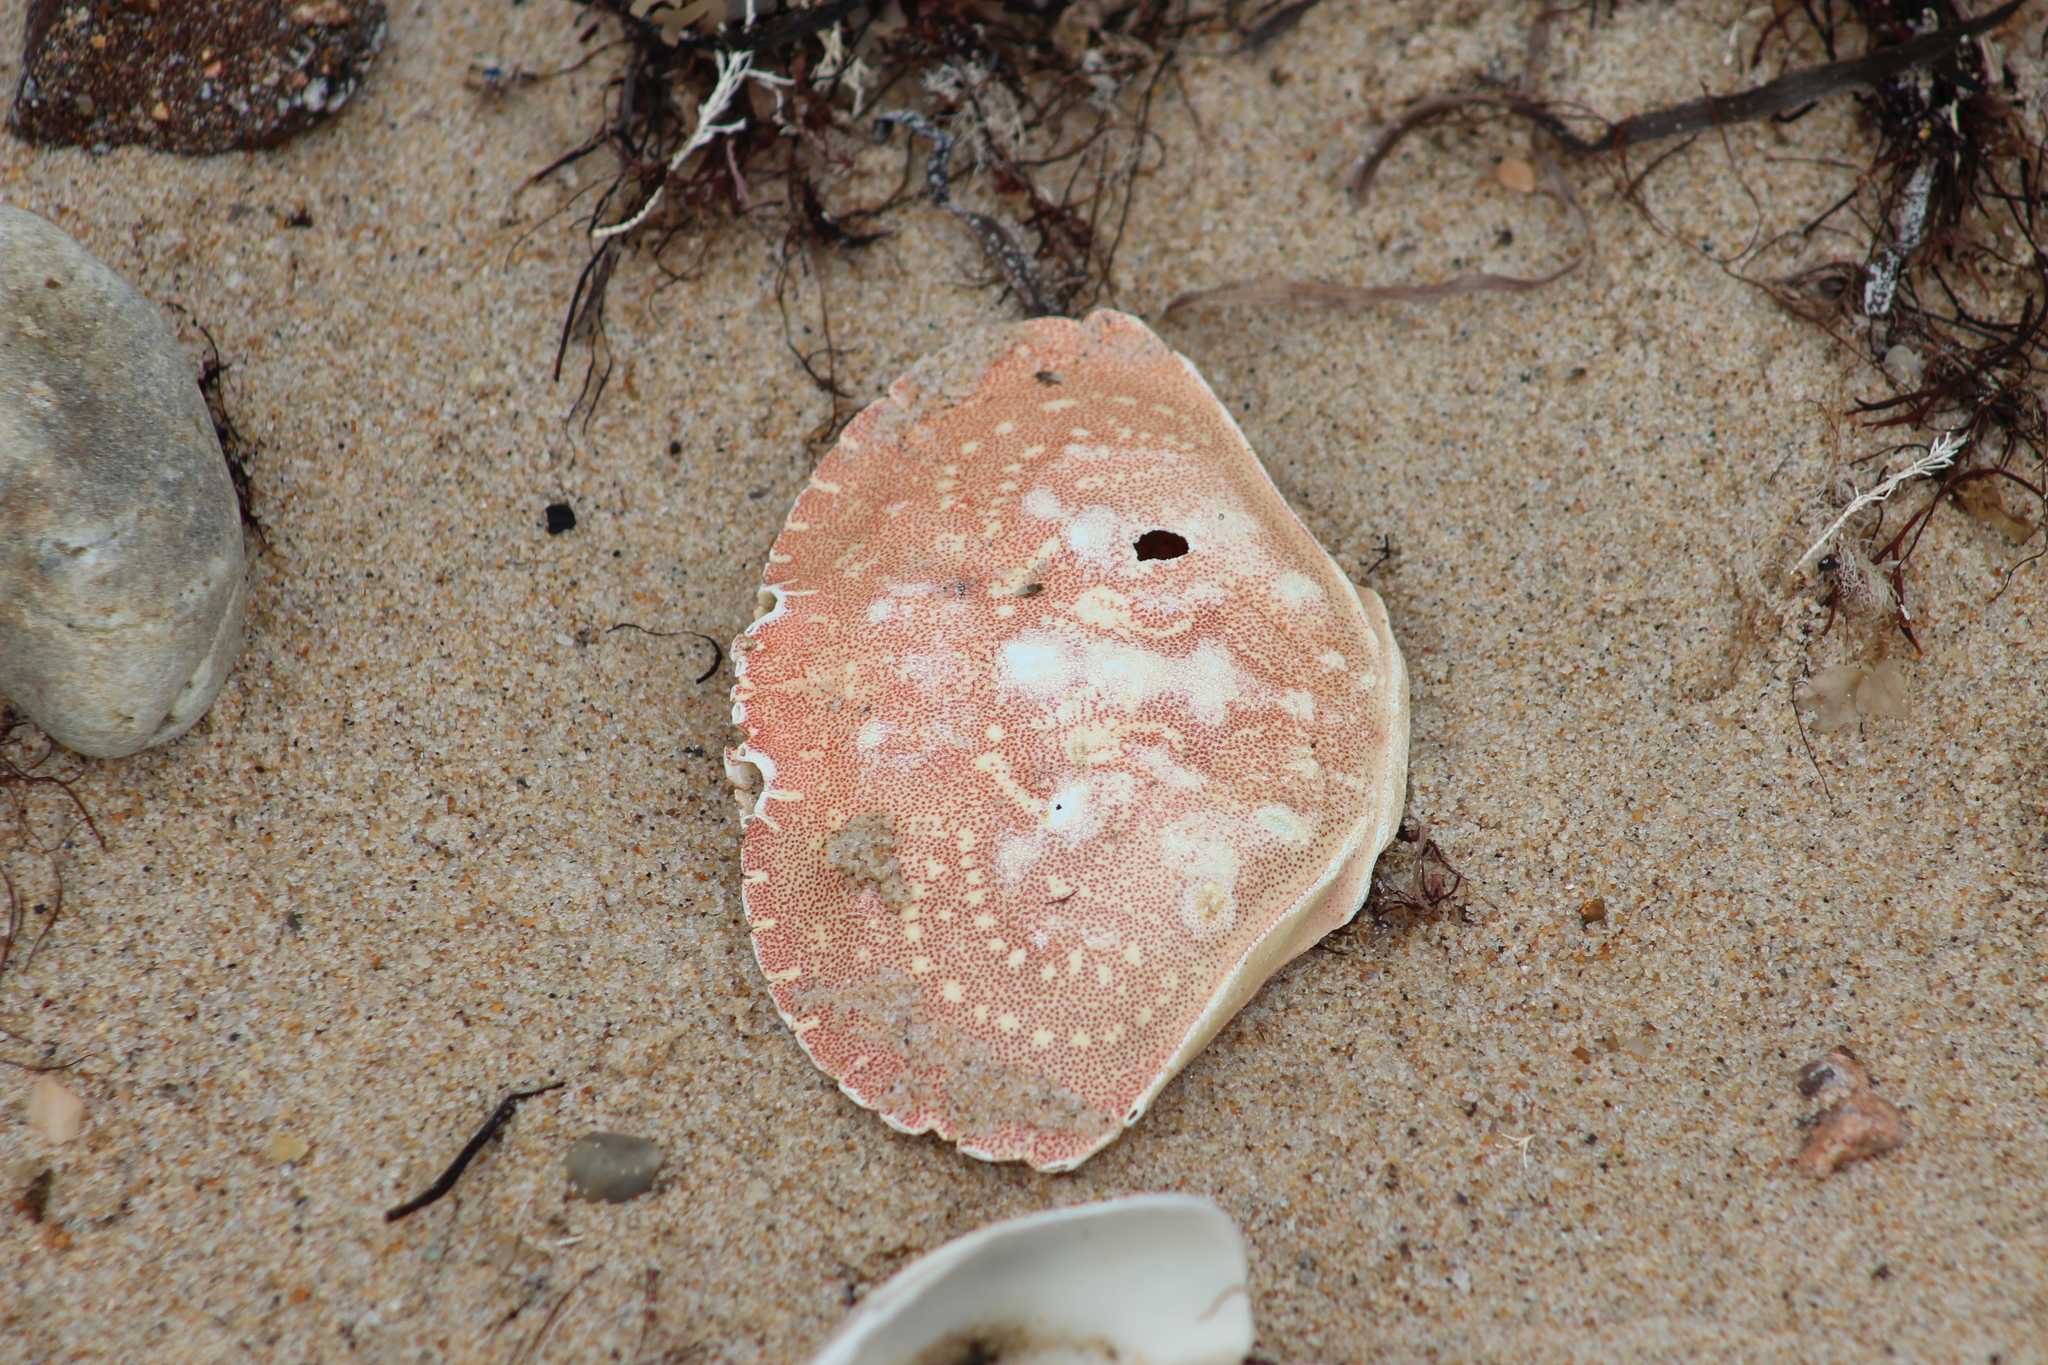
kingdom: Animalia
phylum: Arthropoda
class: Malacostraca
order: Decapoda
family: Cancridae
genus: Cancer
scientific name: Cancer irroratus
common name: Atlantic rock crab
